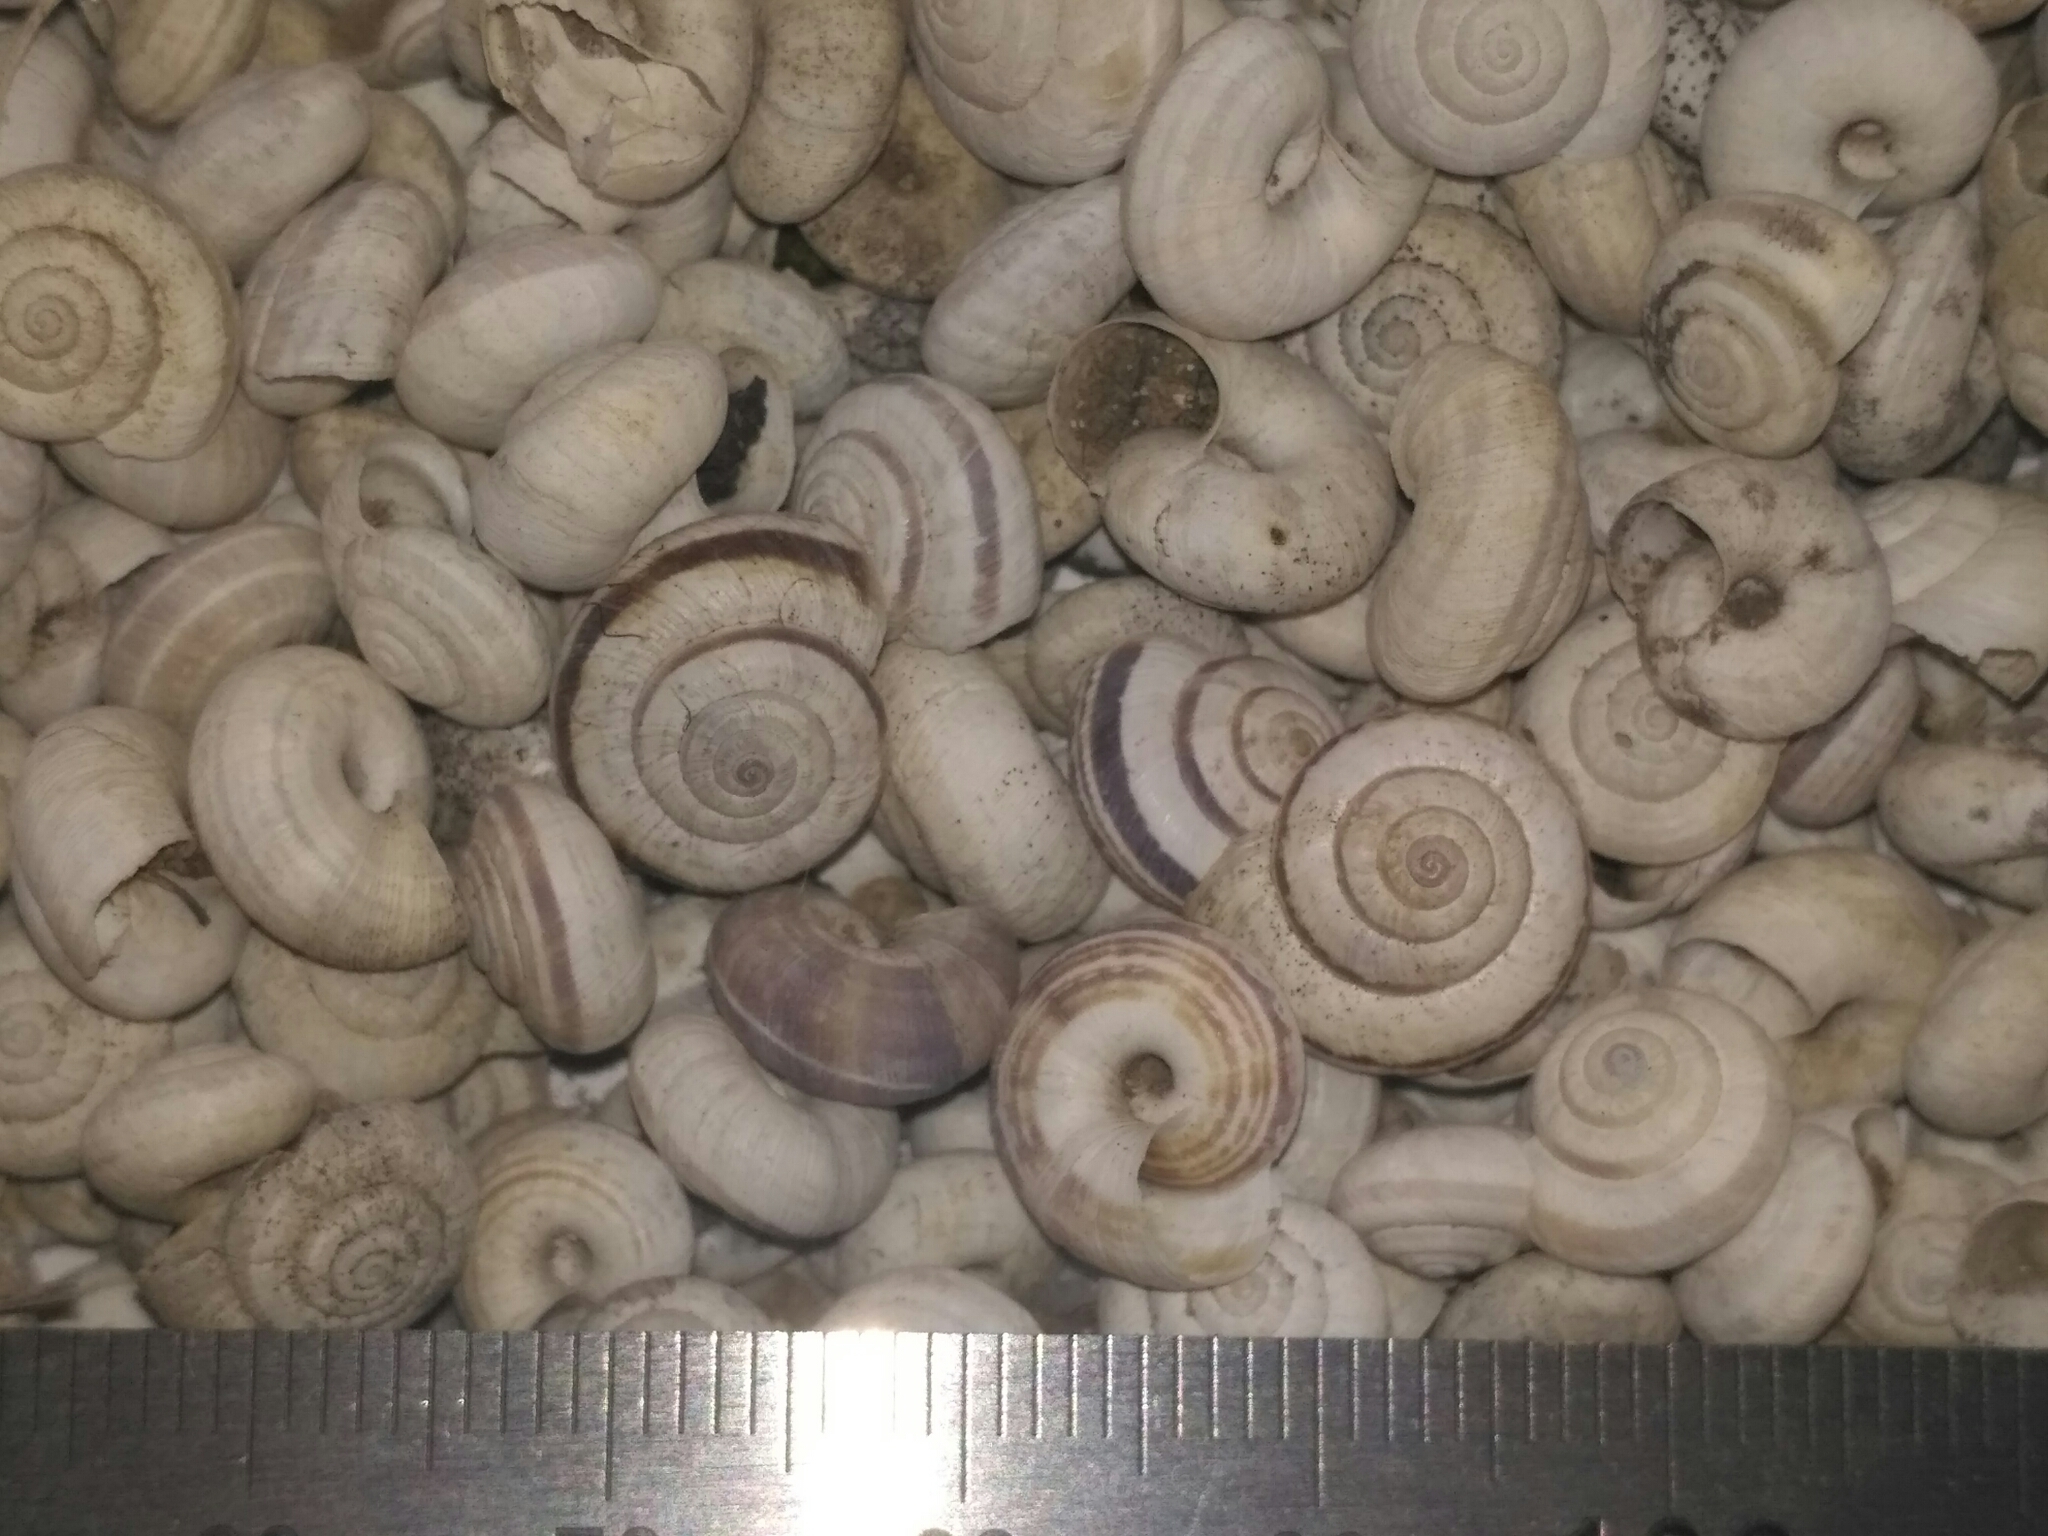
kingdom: Animalia
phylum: Mollusca
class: Gastropoda
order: Stylommatophora
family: Geomitridae
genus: Helicopsis
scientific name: Helicopsis lunulata
